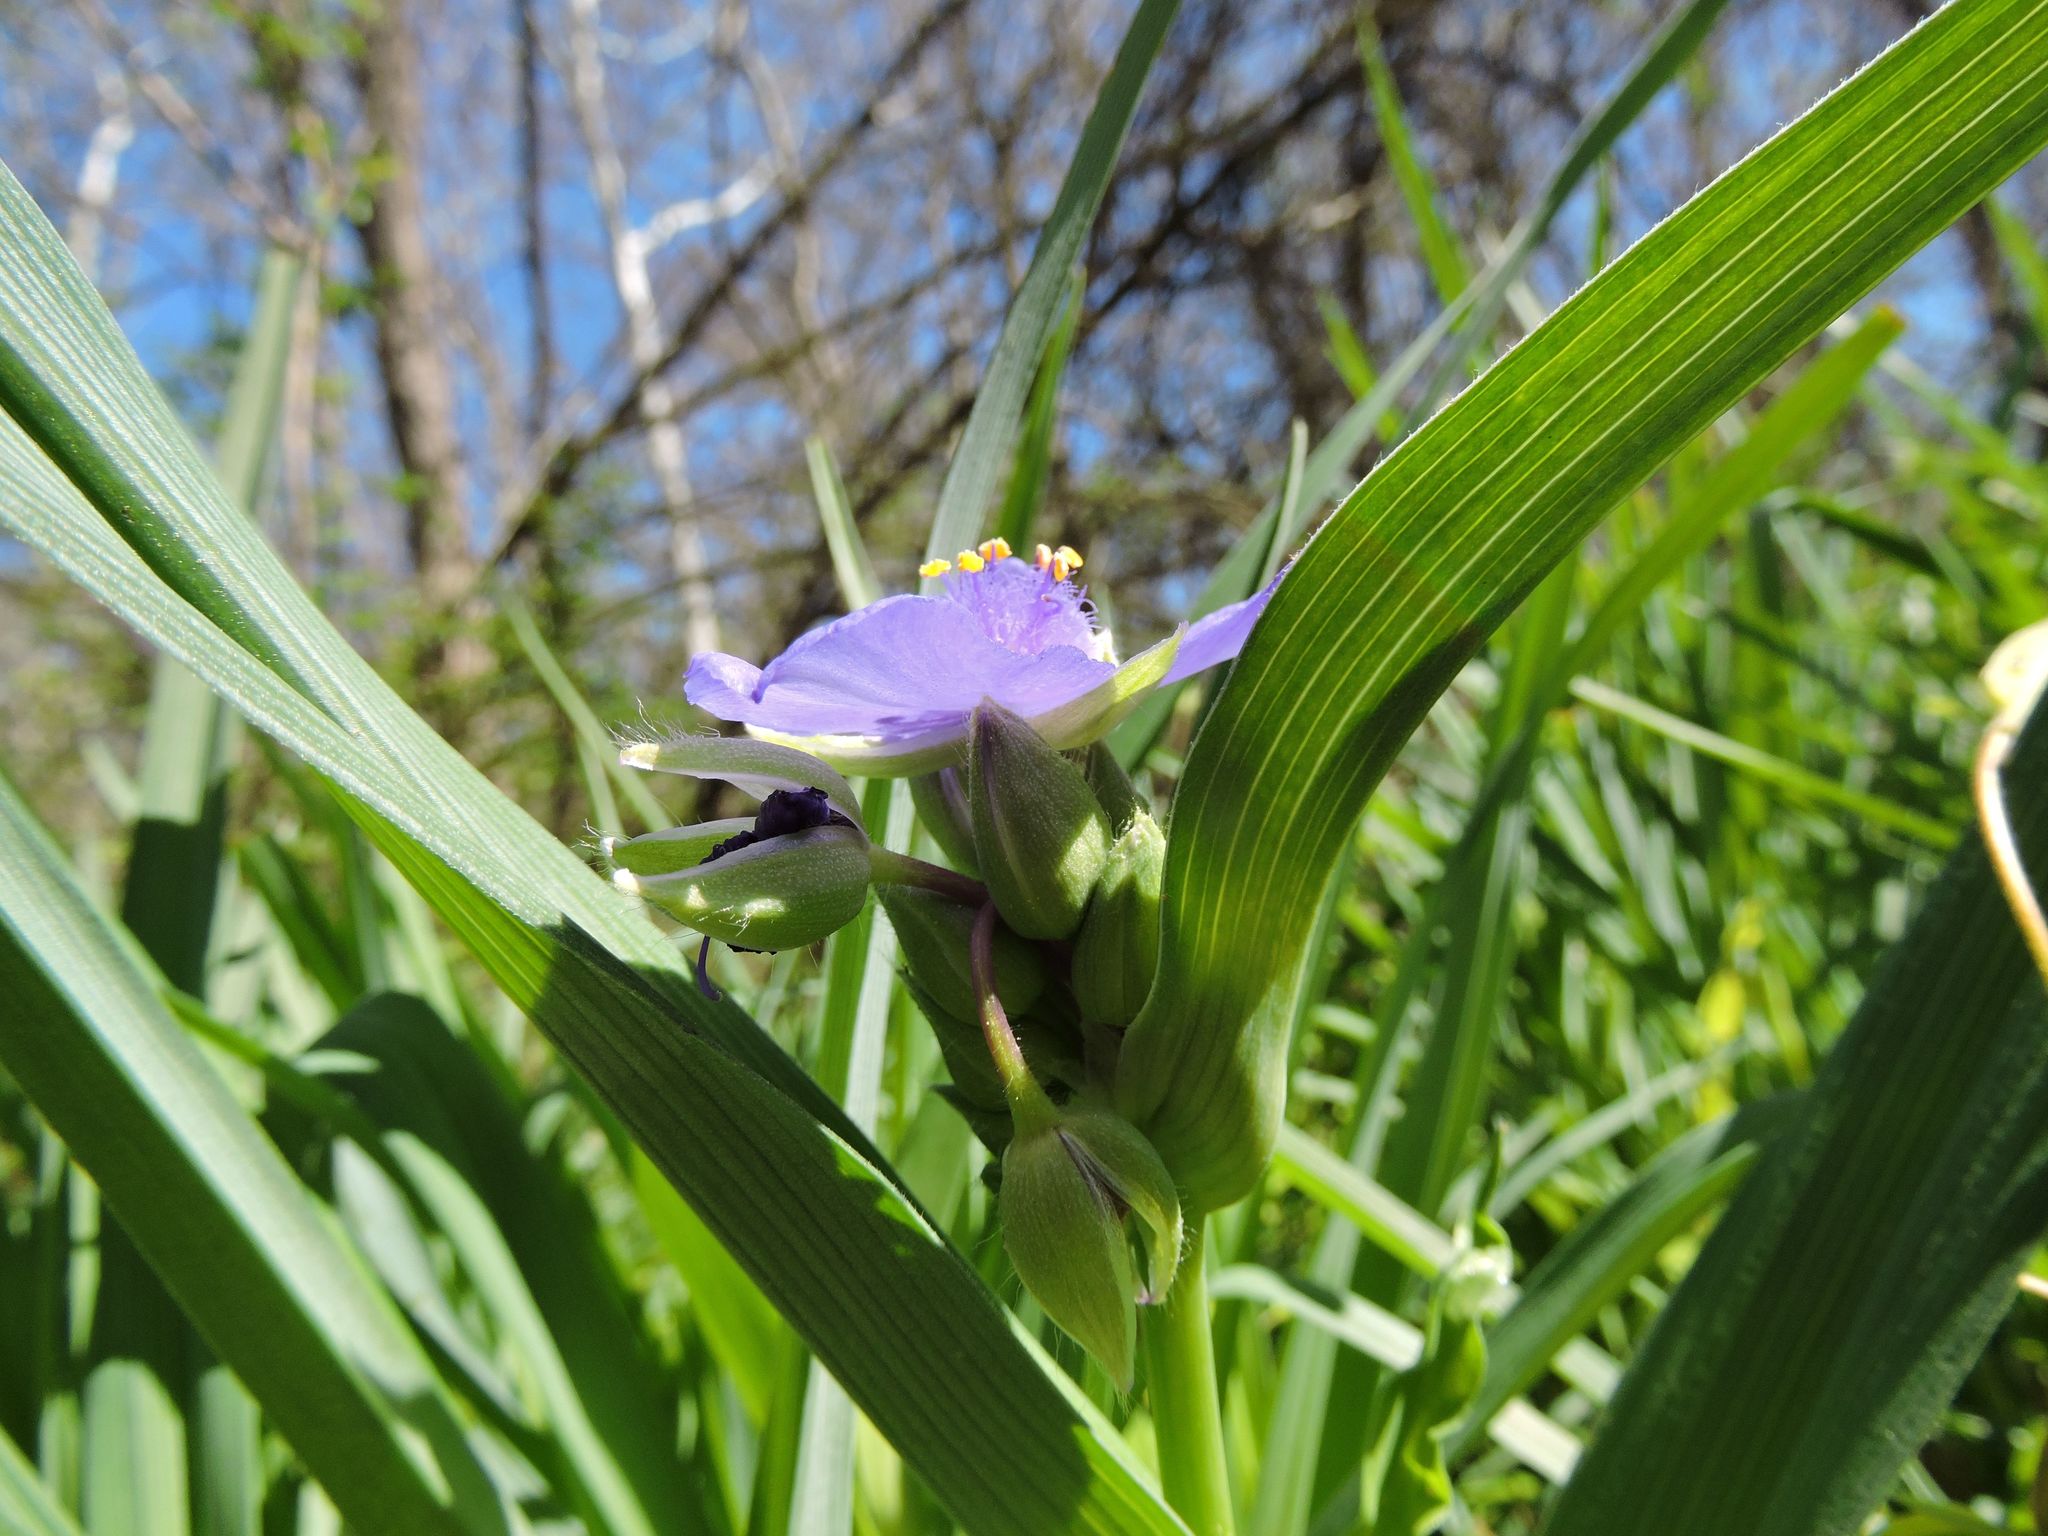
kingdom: Plantae
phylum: Tracheophyta
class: Liliopsida
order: Commelinales
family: Commelinaceae
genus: Tradescantia
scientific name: Tradescantia virginiana
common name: Spiderwort
